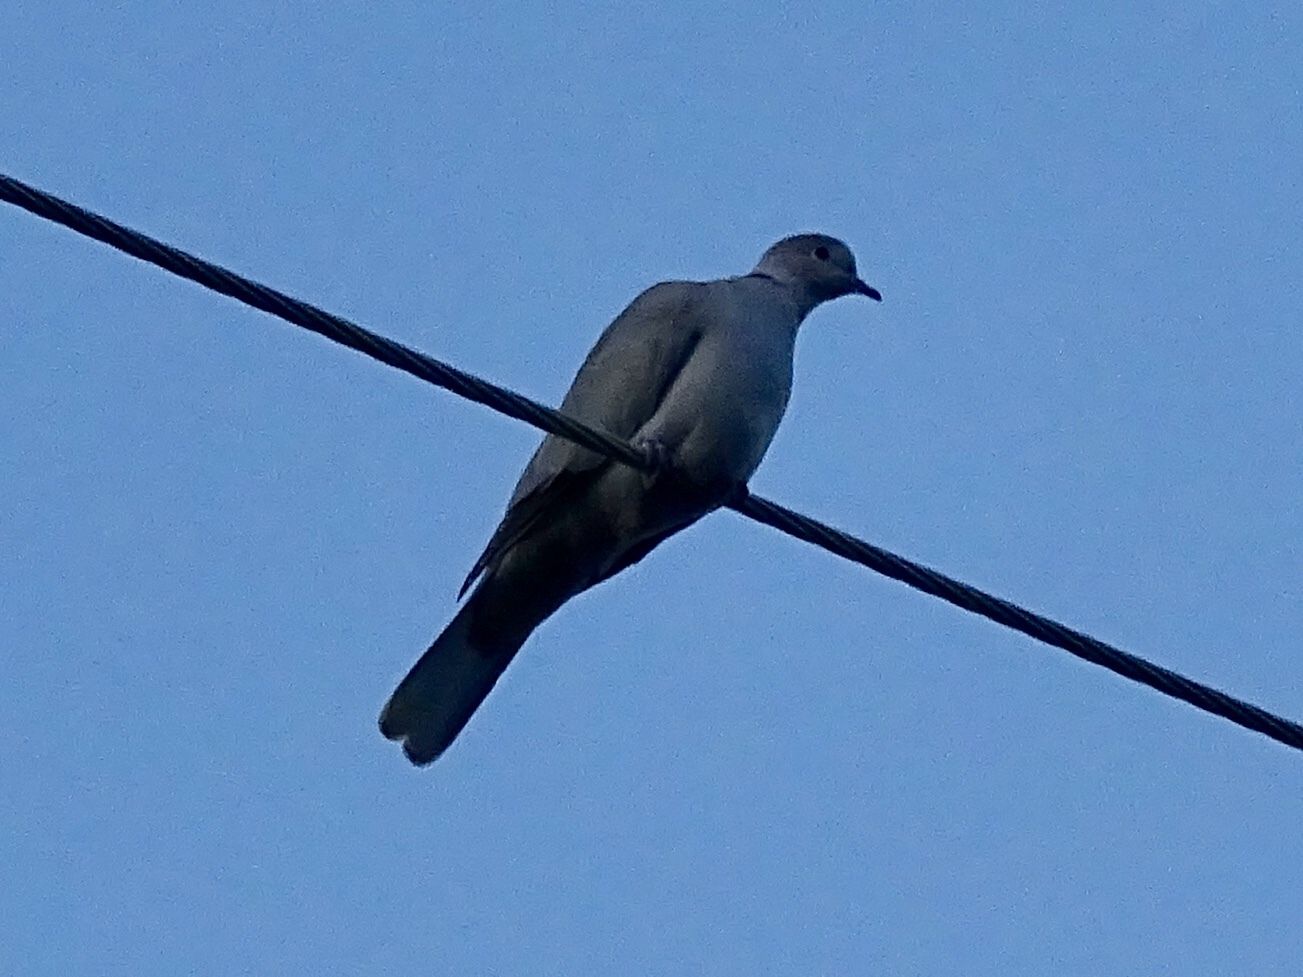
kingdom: Animalia
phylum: Chordata
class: Aves
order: Columbiformes
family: Columbidae
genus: Streptopelia
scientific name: Streptopelia decaocto
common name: Eurasian collared dove
